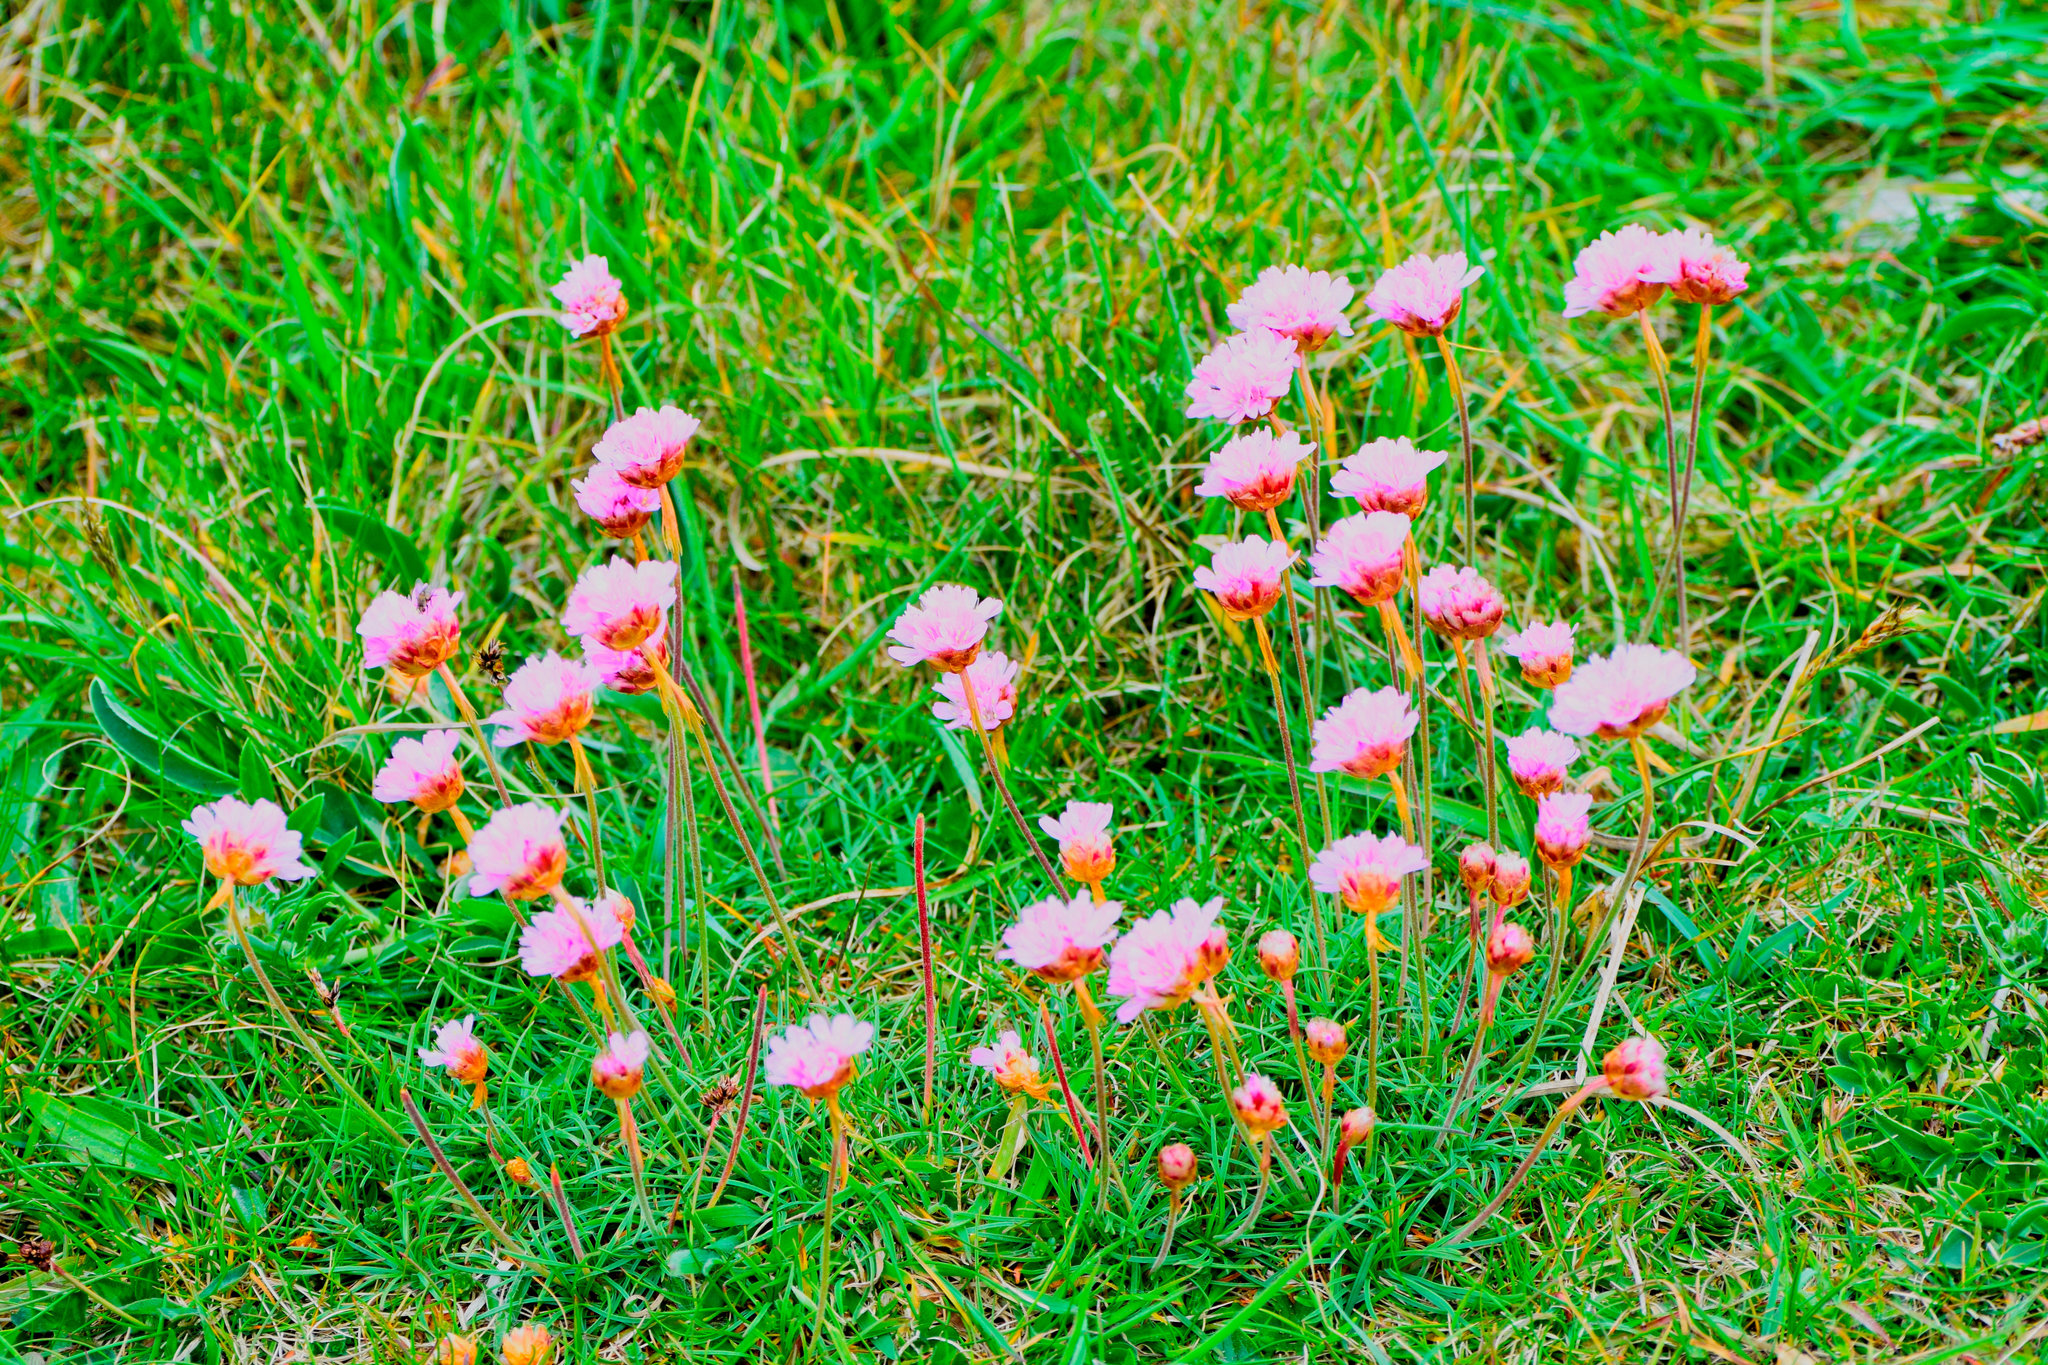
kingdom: Plantae
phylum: Tracheophyta
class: Magnoliopsida
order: Caryophyllales
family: Plumbaginaceae
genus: Armeria
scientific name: Armeria maritima
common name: Thrift
